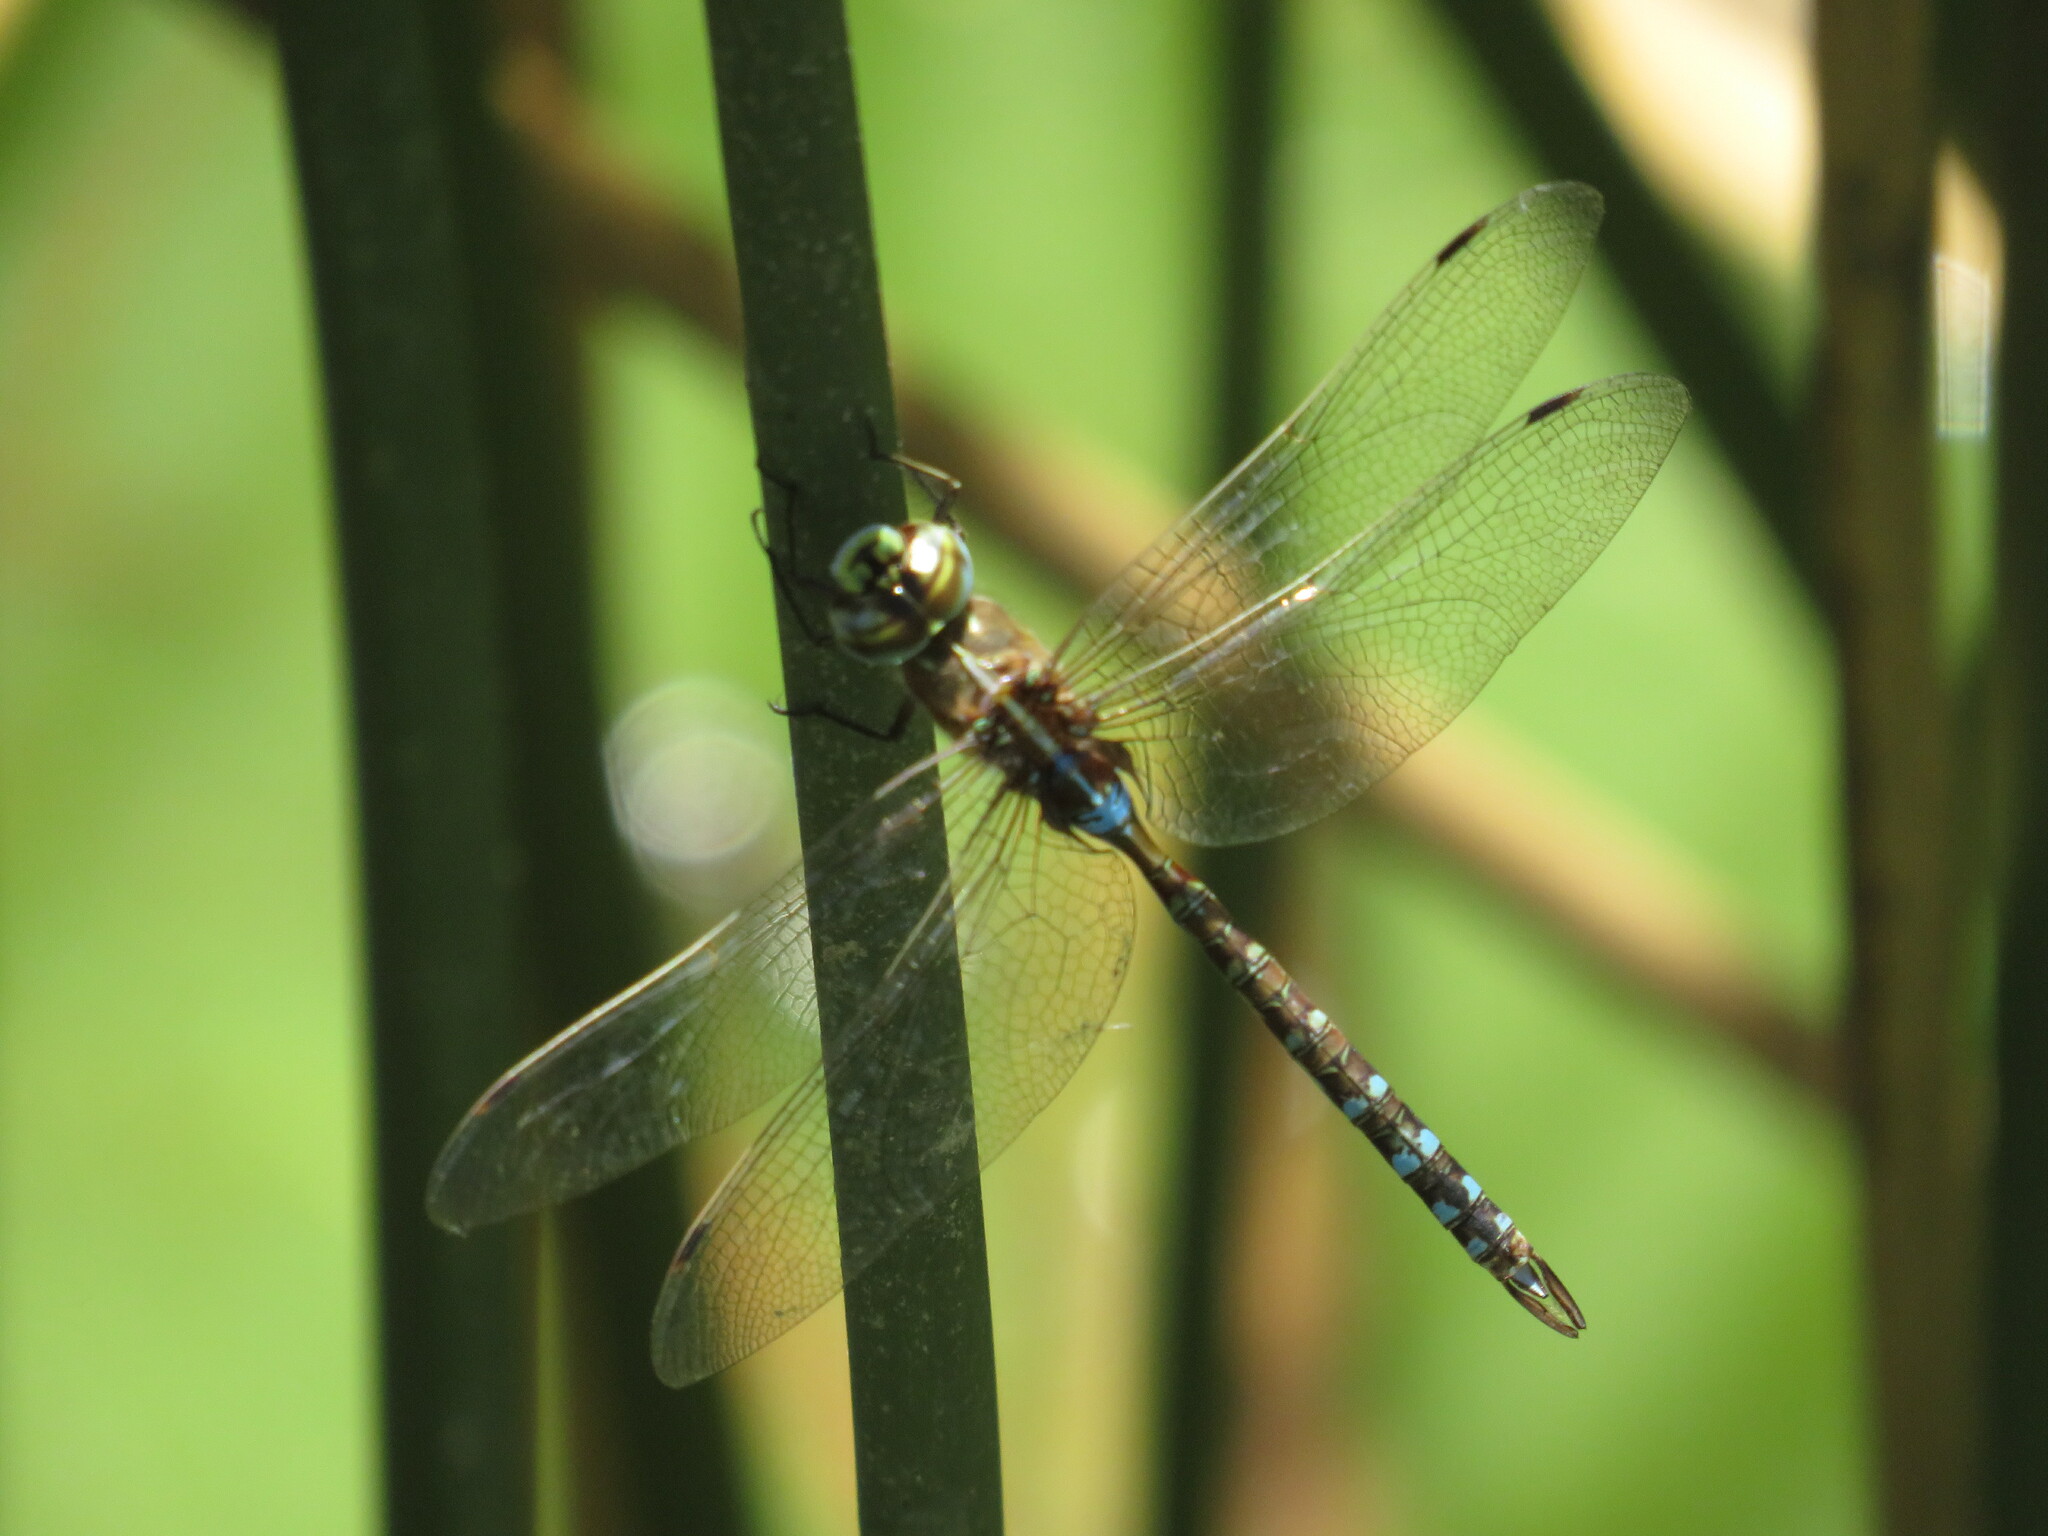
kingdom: Animalia
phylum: Arthropoda
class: Insecta
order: Odonata
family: Aeshnidae
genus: Rhionaeschna
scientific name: Rhionaeschna bonariensis
